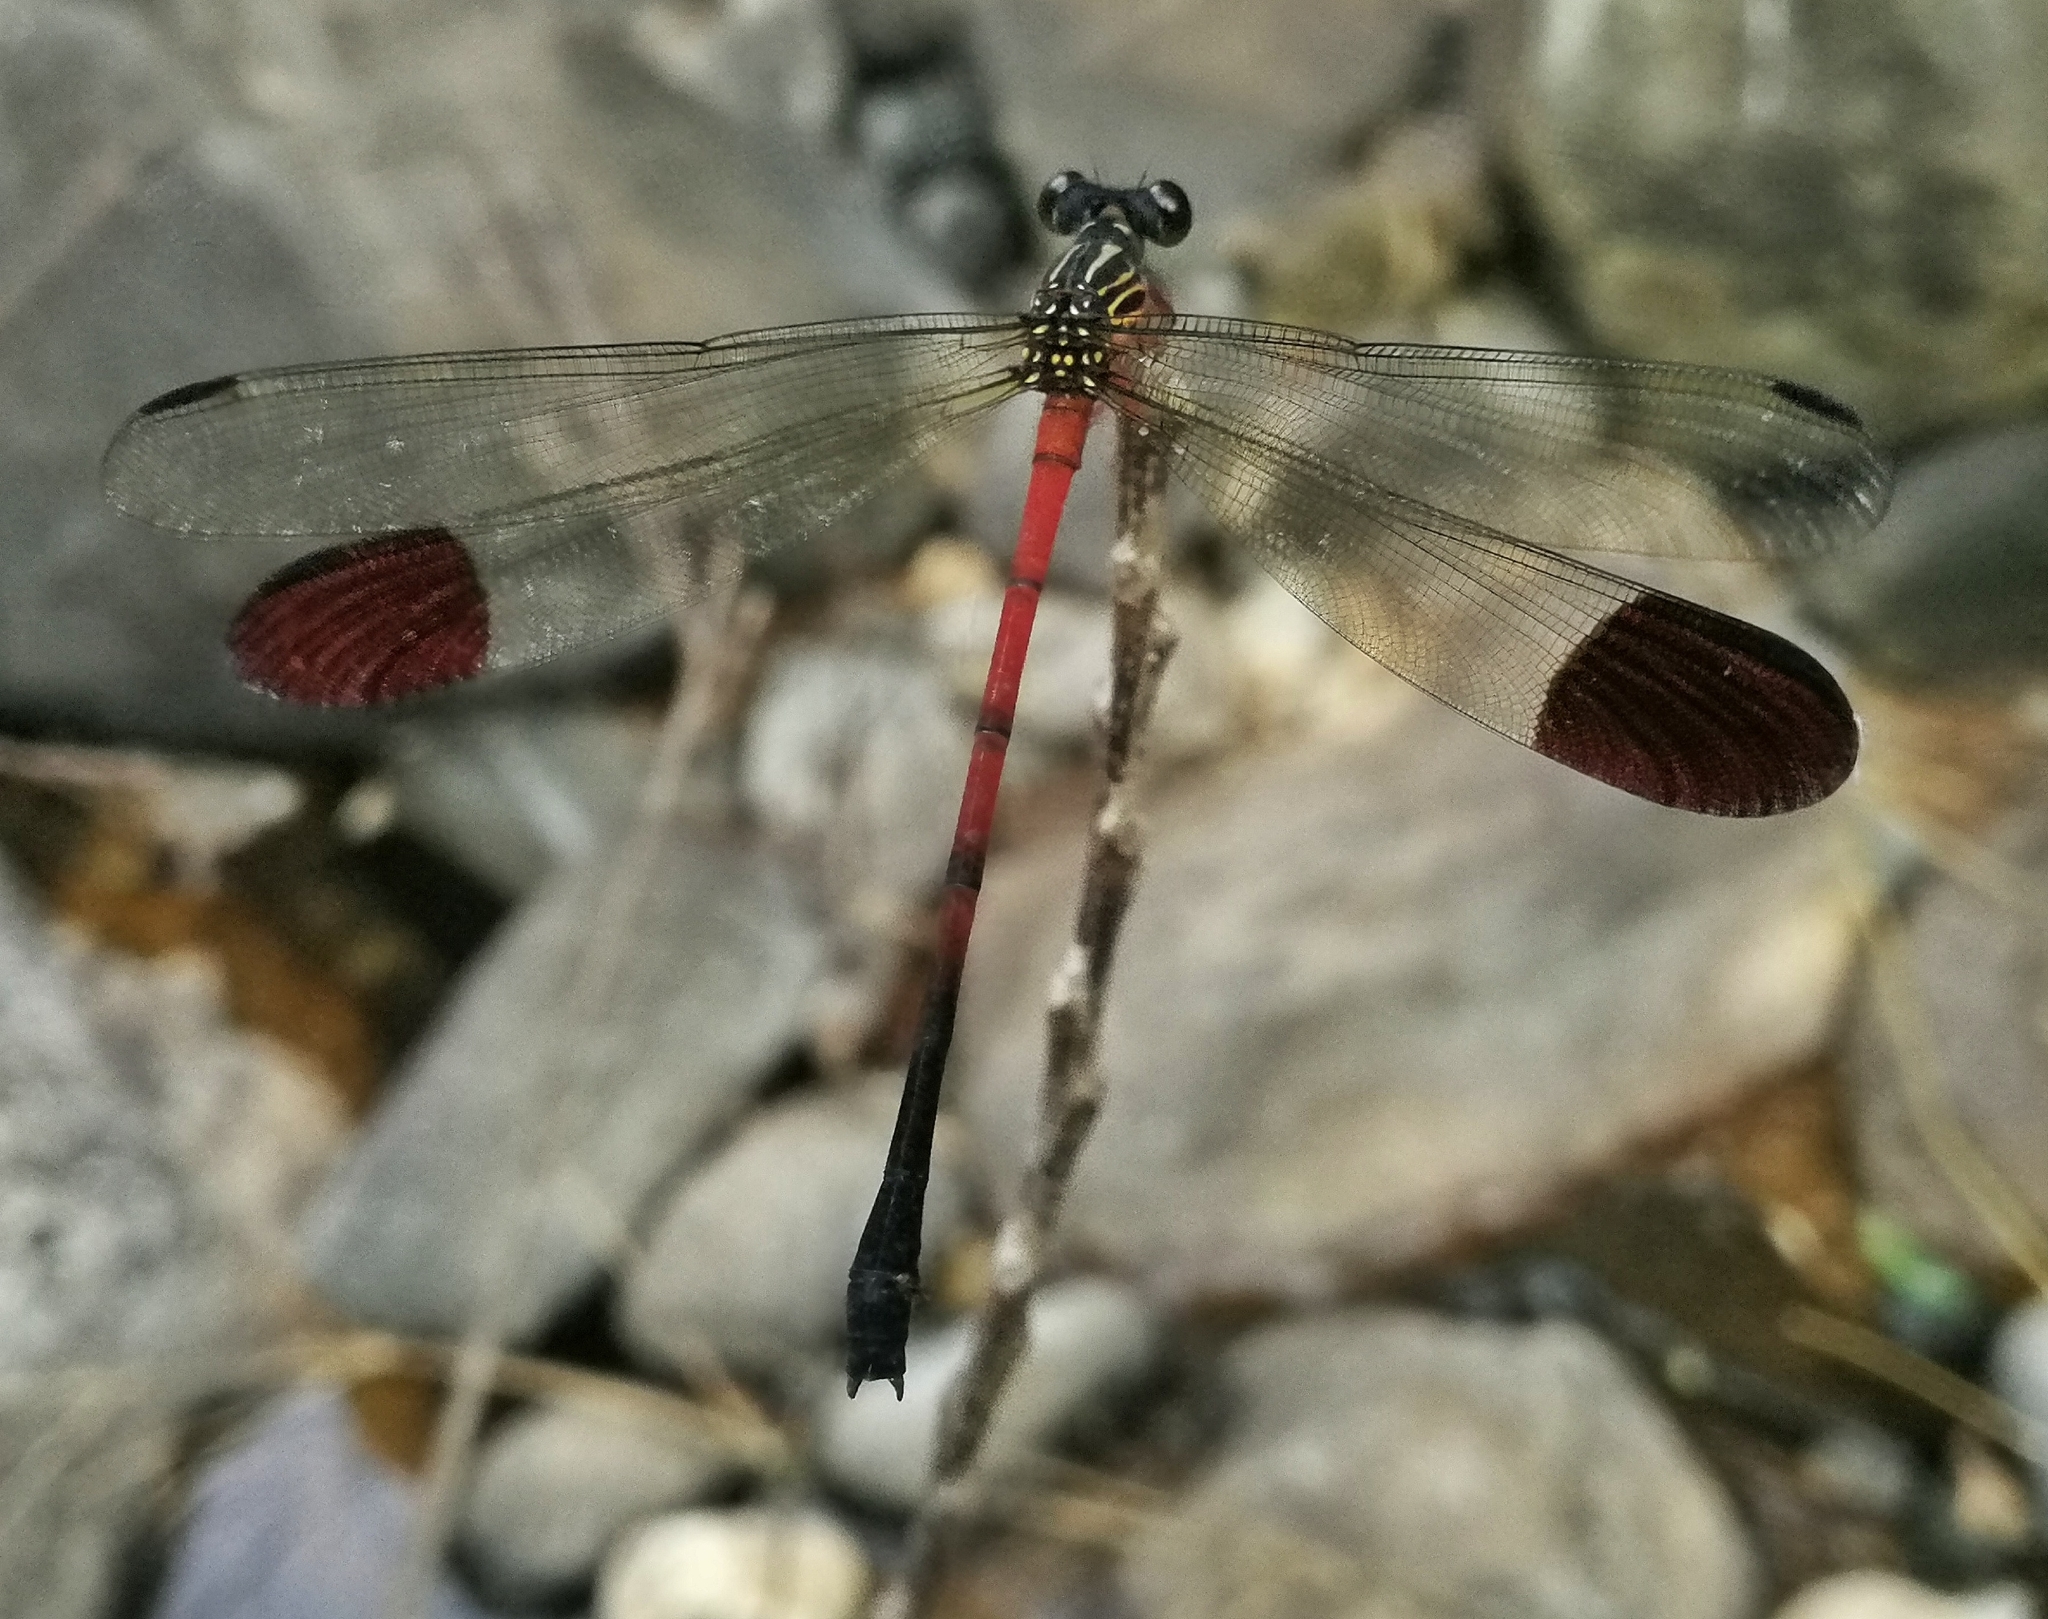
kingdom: Animalia
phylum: Arthropoda
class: Insecta
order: Odonata
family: Euphaeidae
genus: Euphaea
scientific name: Euphaea fraseri
